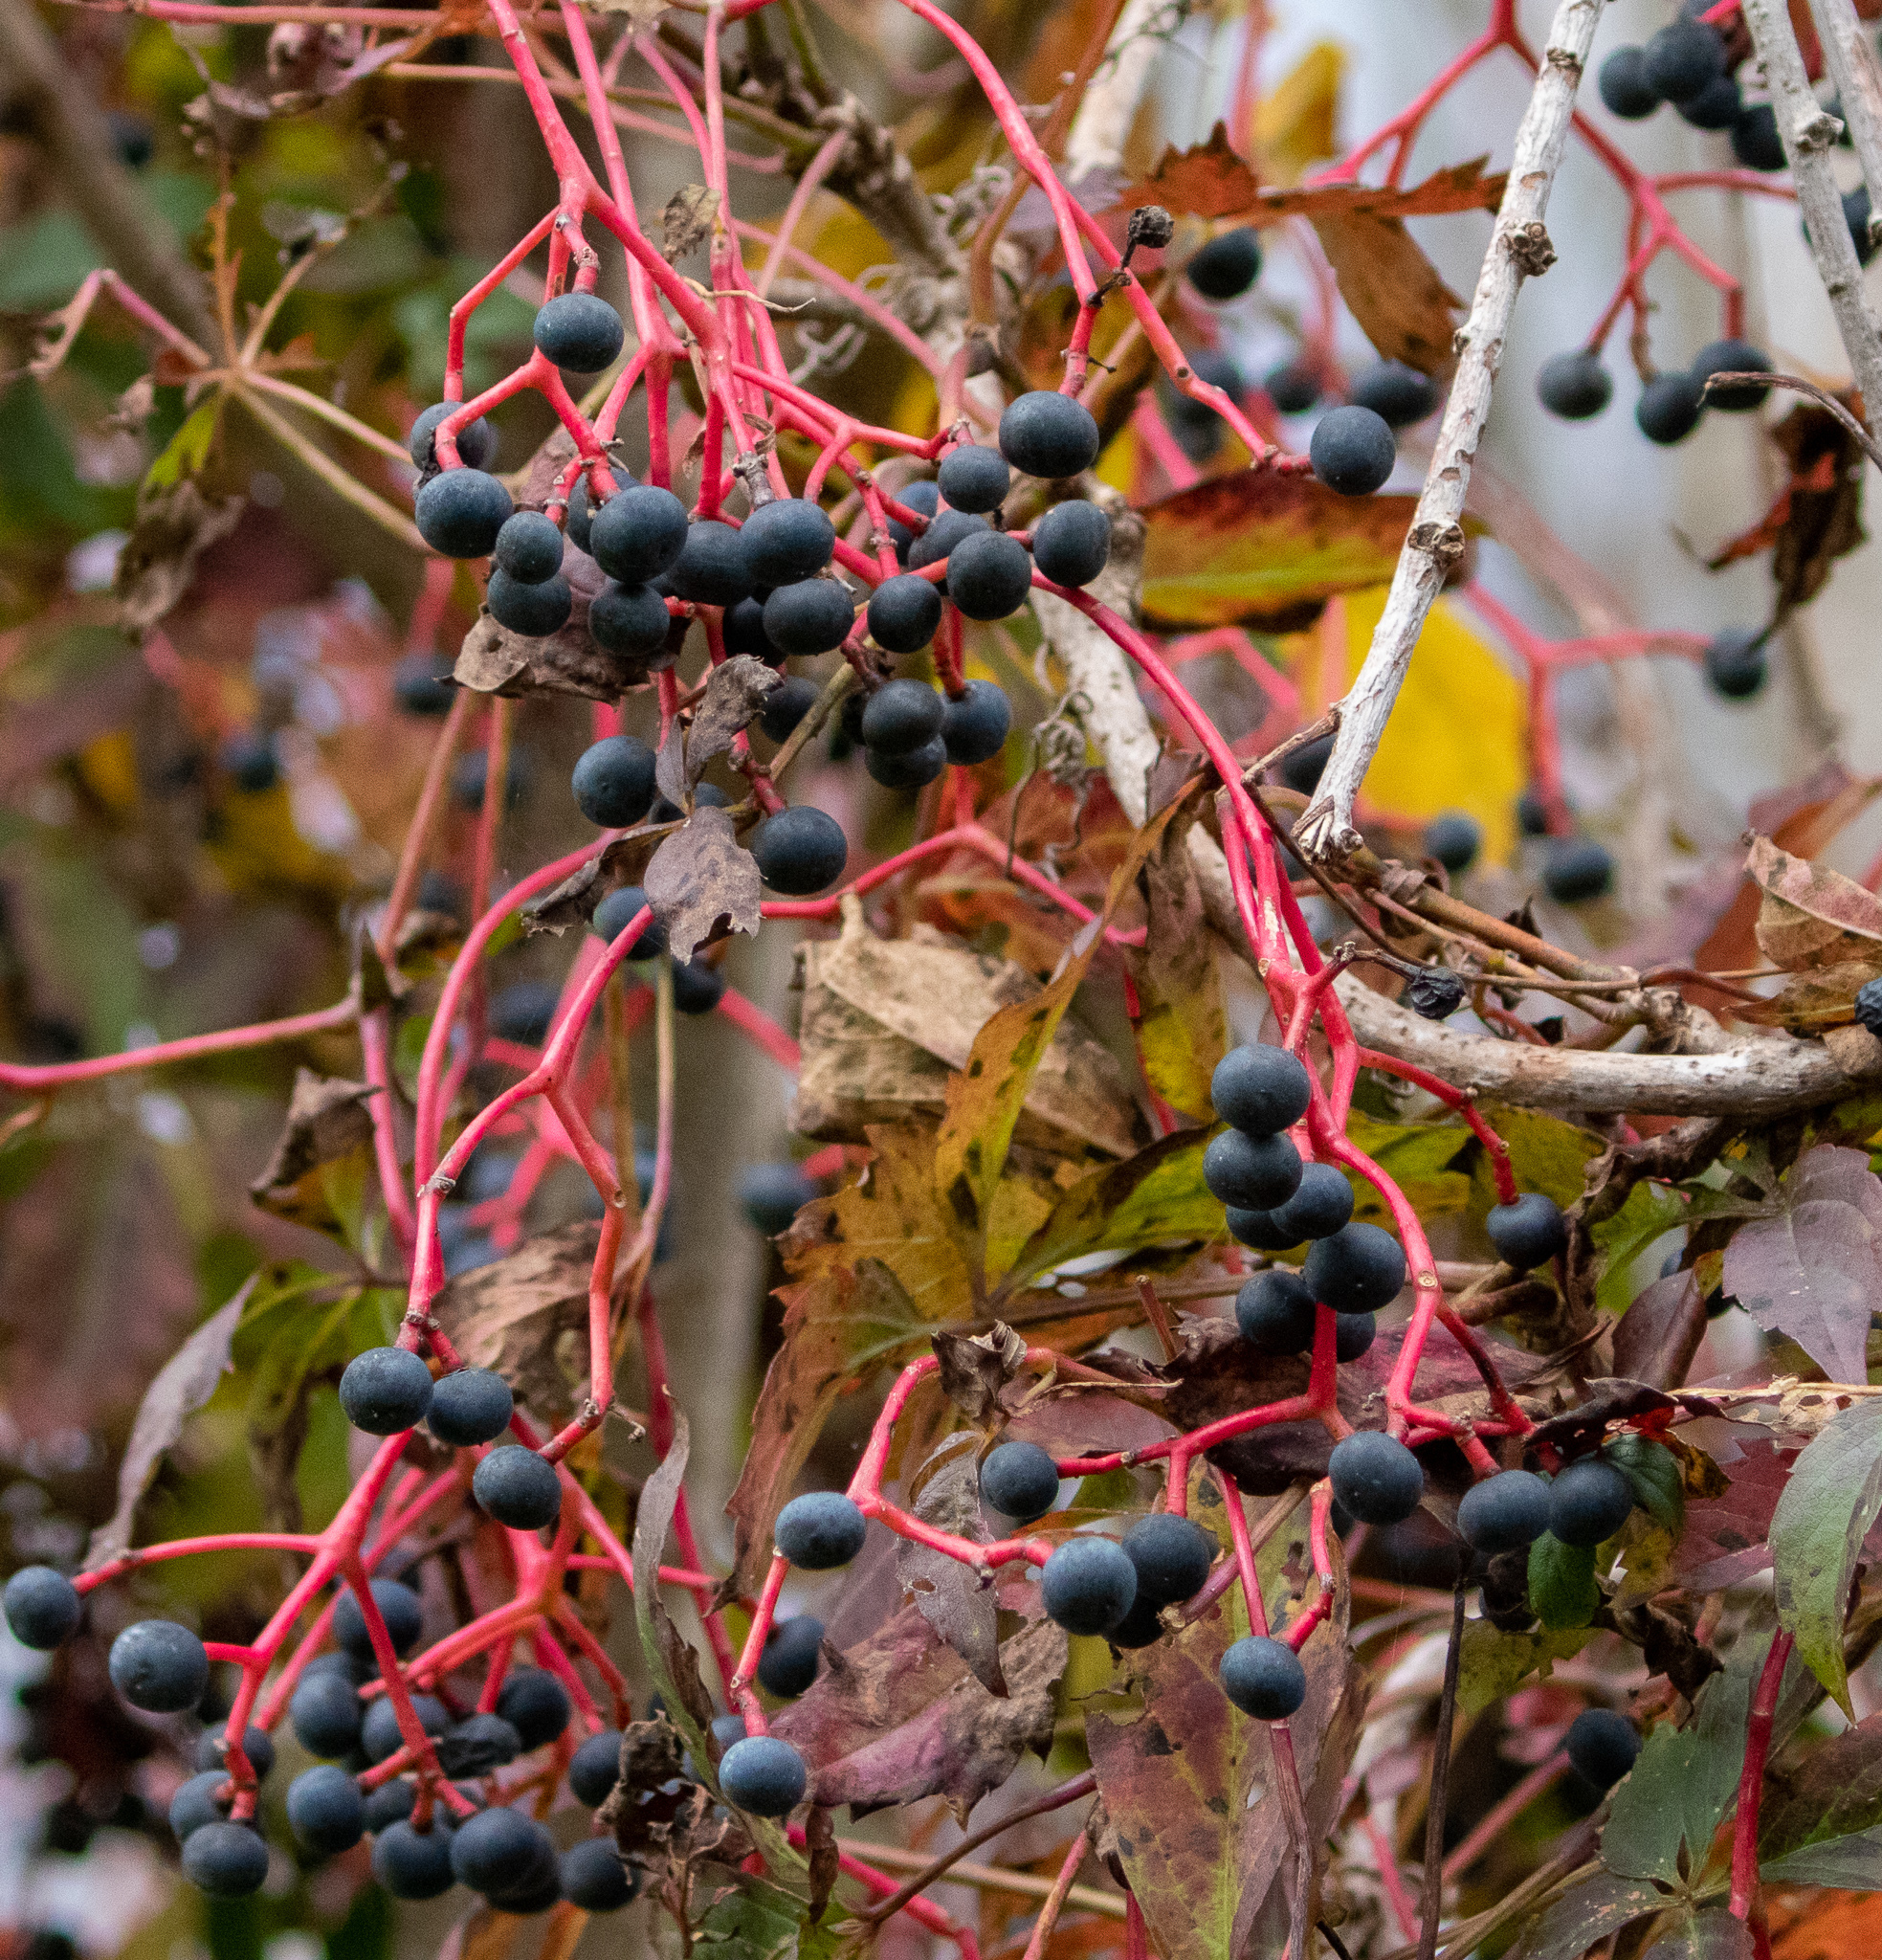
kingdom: Plantae
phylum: Tracheophyta
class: Magnoliopsida
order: Vitales
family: Vitaceae
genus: Parthenocissus
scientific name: Parthenocissus quinquefolia
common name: Virginia-creeper
